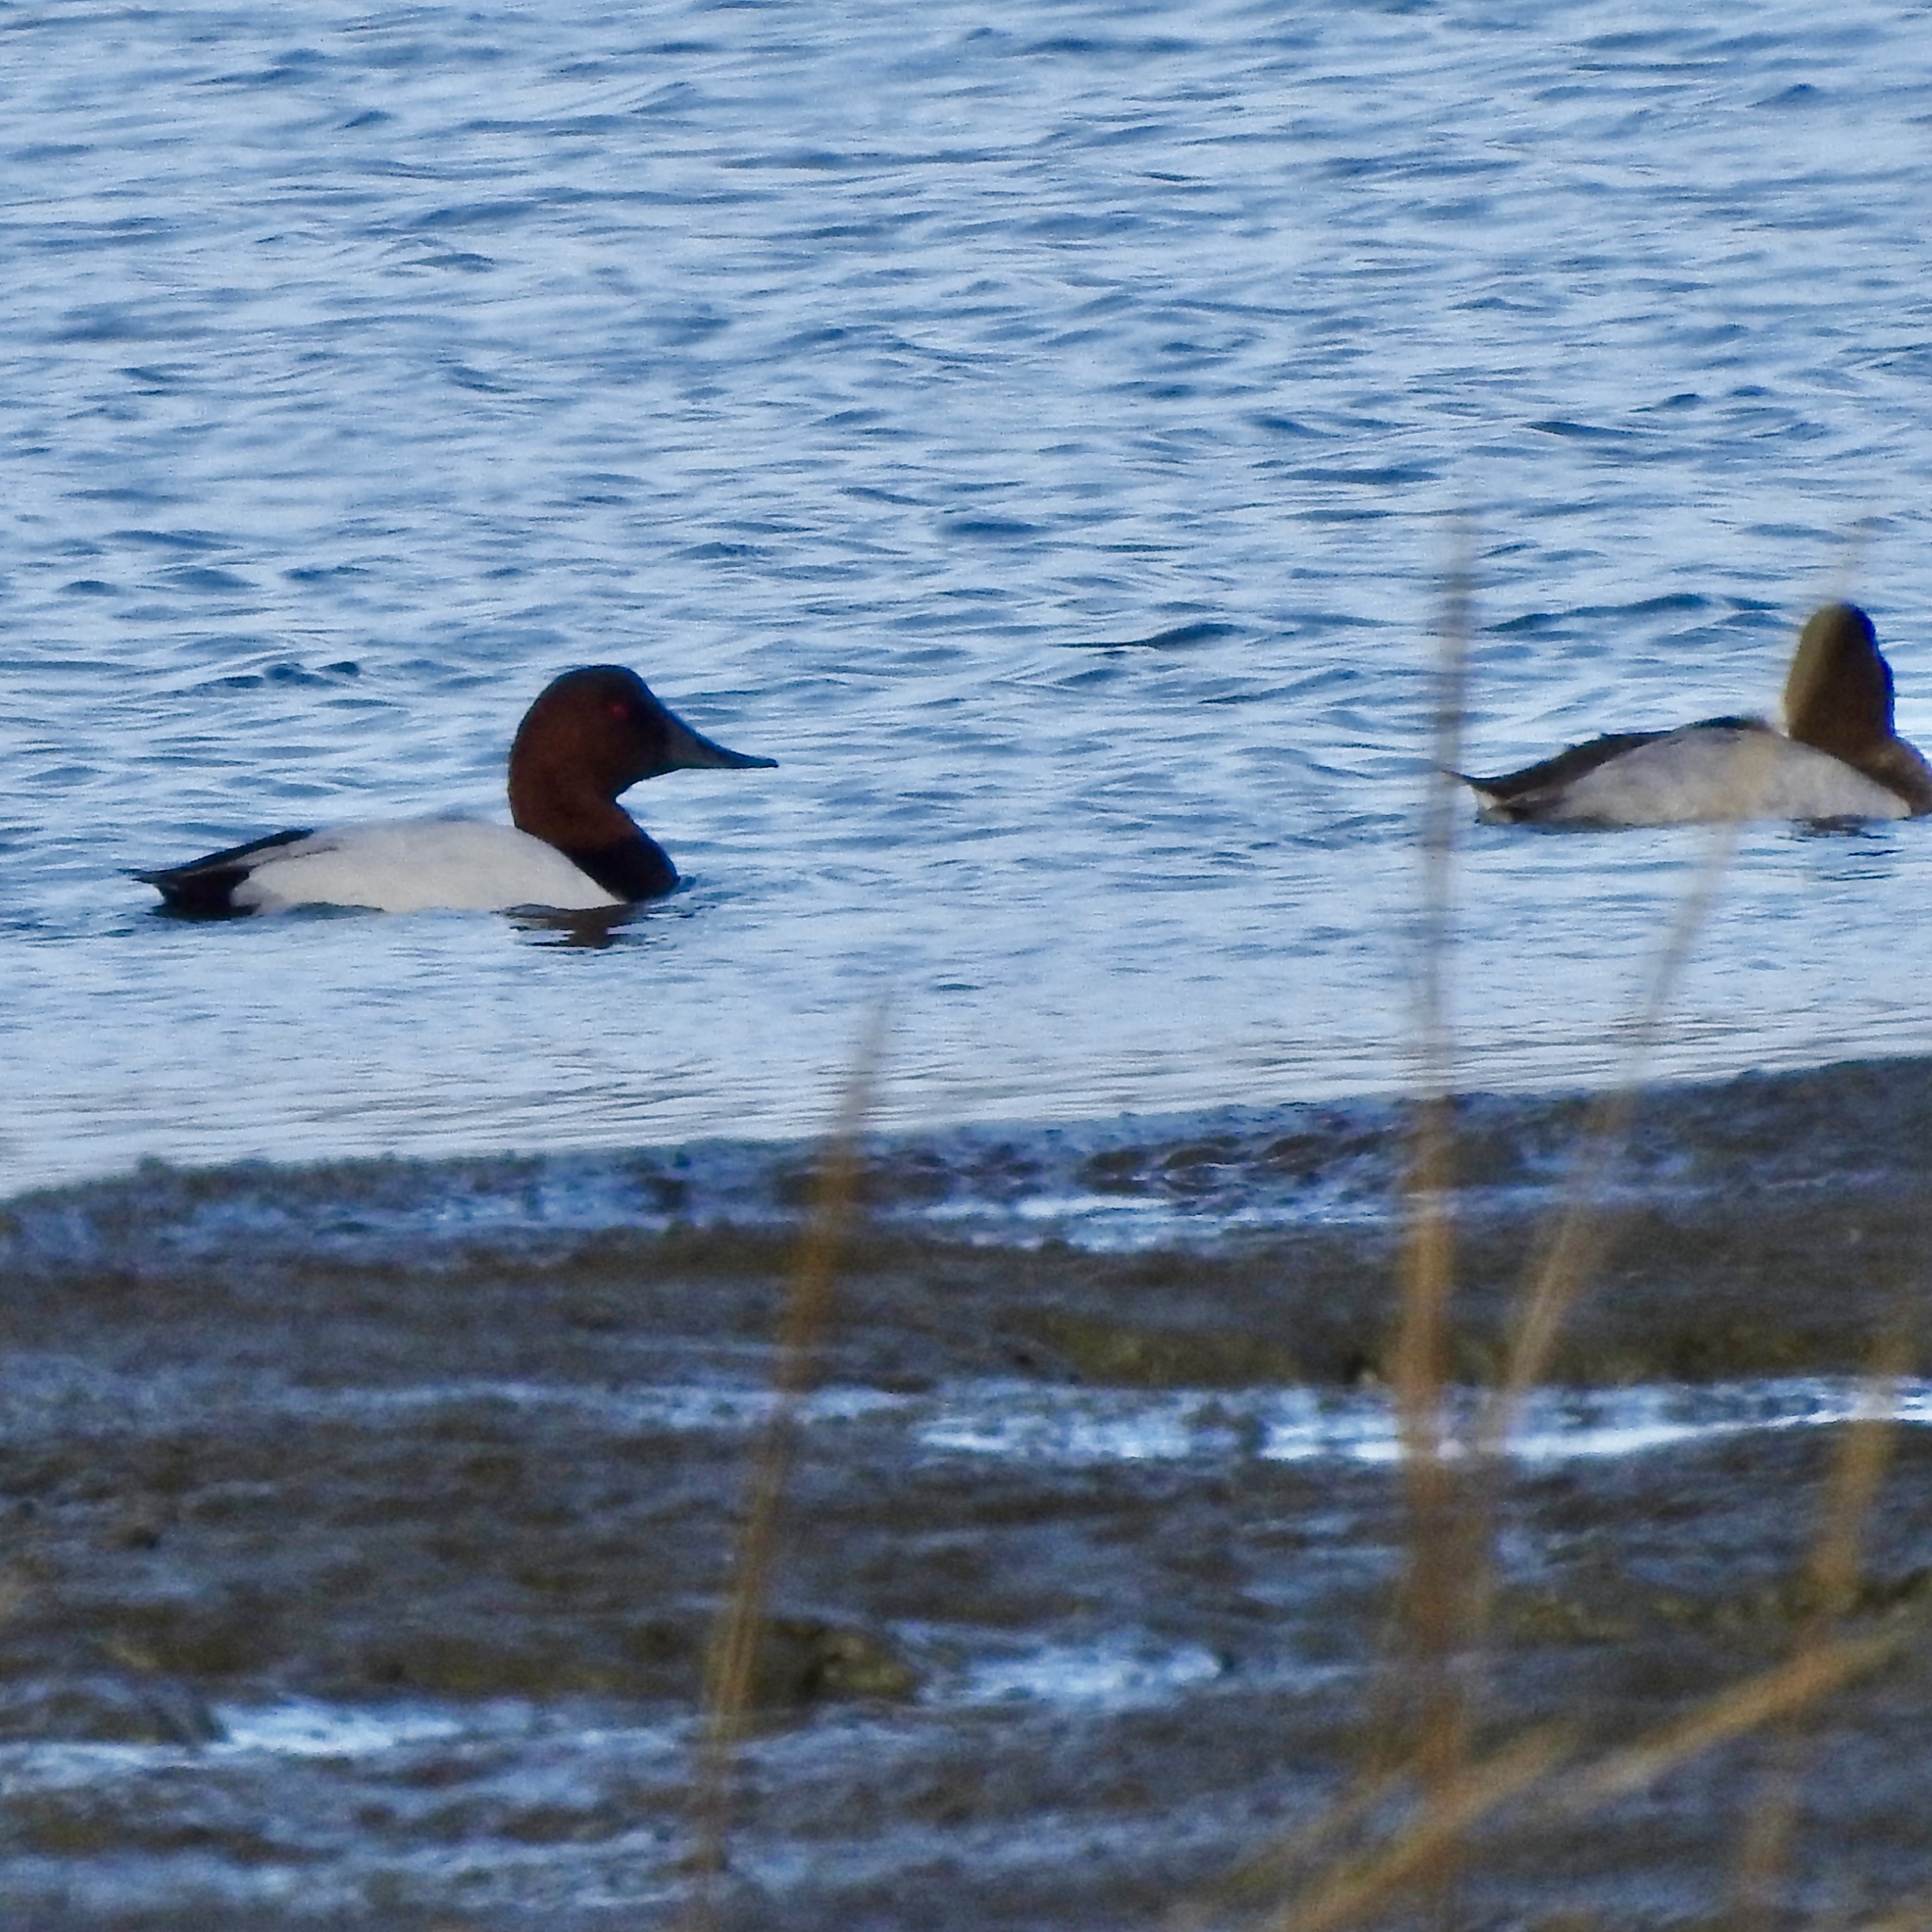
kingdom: Animalia
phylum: Chordata
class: Aves
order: Anseriformes
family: Anatidae
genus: Aythya
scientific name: Aythya valisineria
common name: Canvasback
